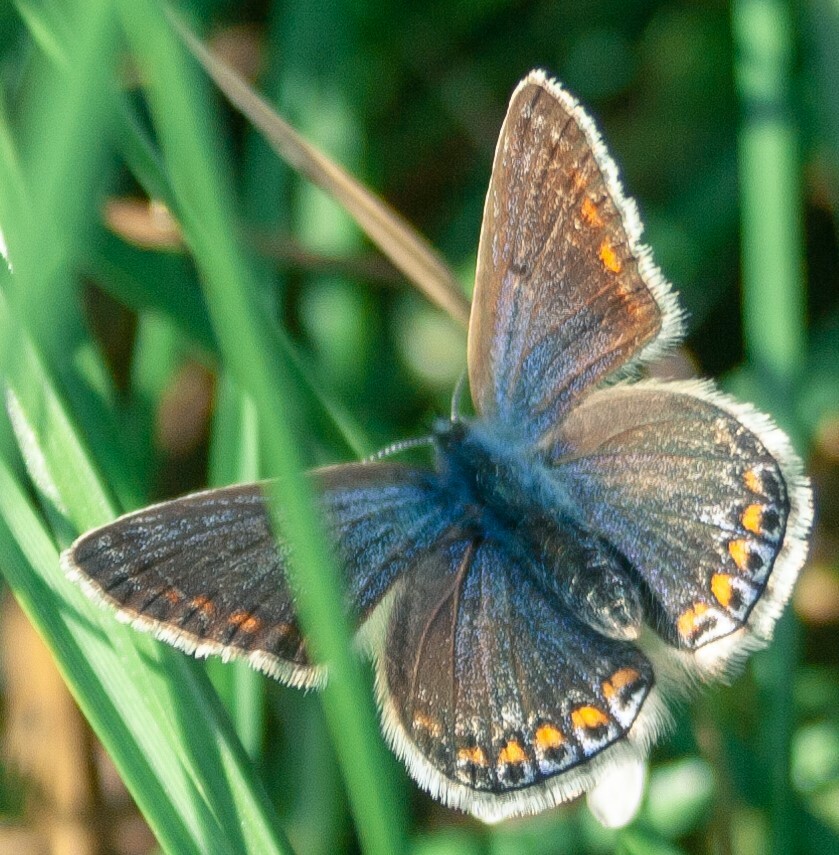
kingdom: Animalia
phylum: Arthropoda
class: Insecta
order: Lepidoptera
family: Lycaenidae
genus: Polyommatus
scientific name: Polyommatus icarus
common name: Common blue
